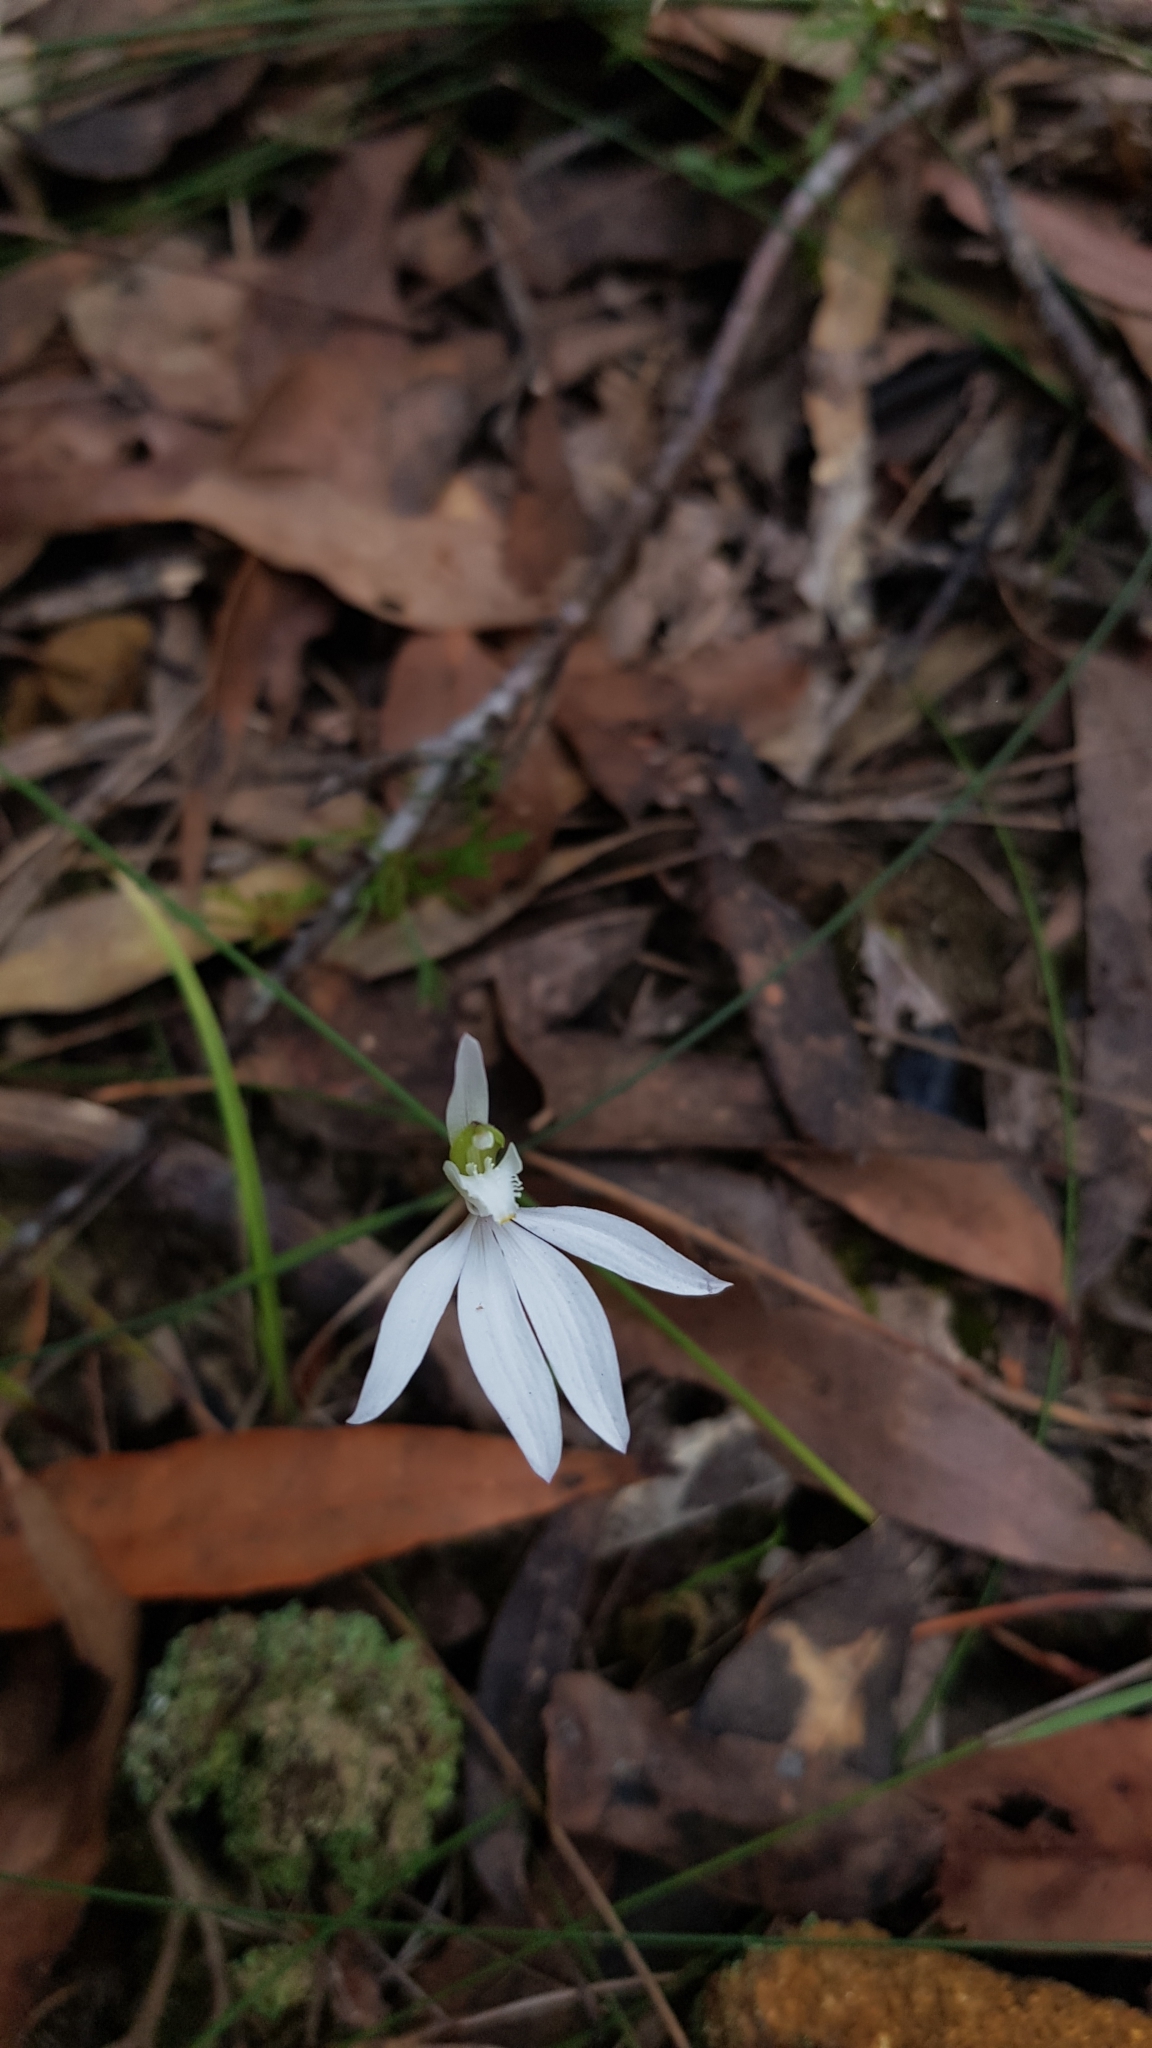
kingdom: Plantae
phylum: Tracheophyta
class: Liliopsida
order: Asparagales
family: Orchidaceae
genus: Caladenia
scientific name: Caladenia catenata
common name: White caladenia
